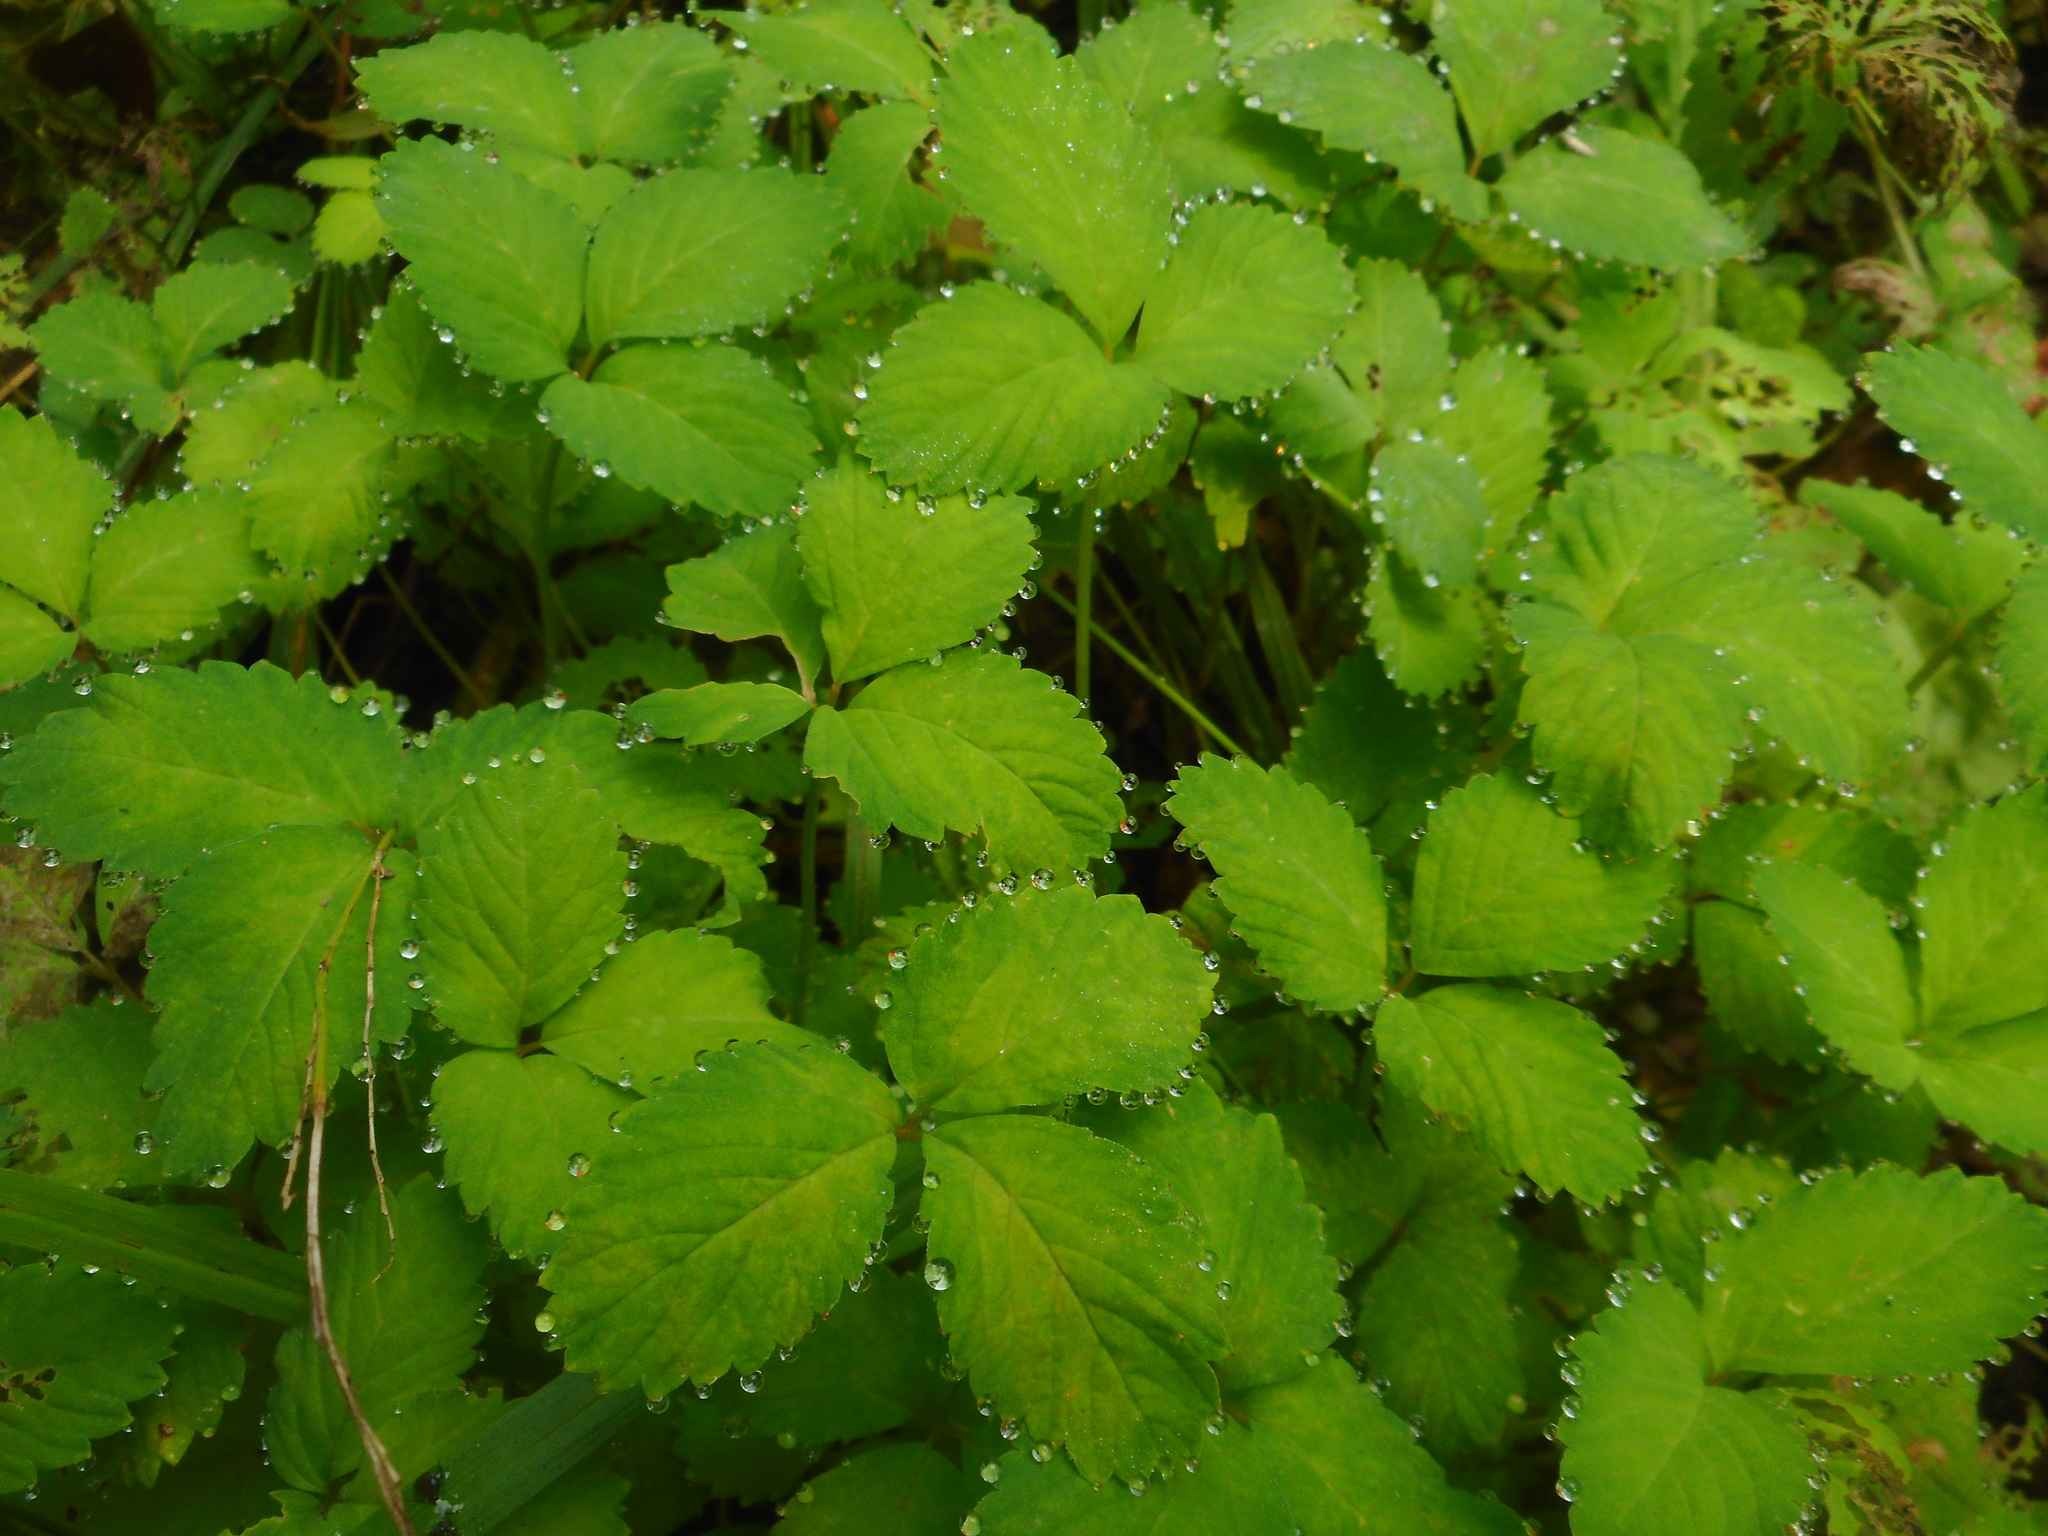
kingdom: Plantae
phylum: Tracheophyta
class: Magnoliopsida
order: Rosales
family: Rosaceae
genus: Potentilla
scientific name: Potentilla centigrana
